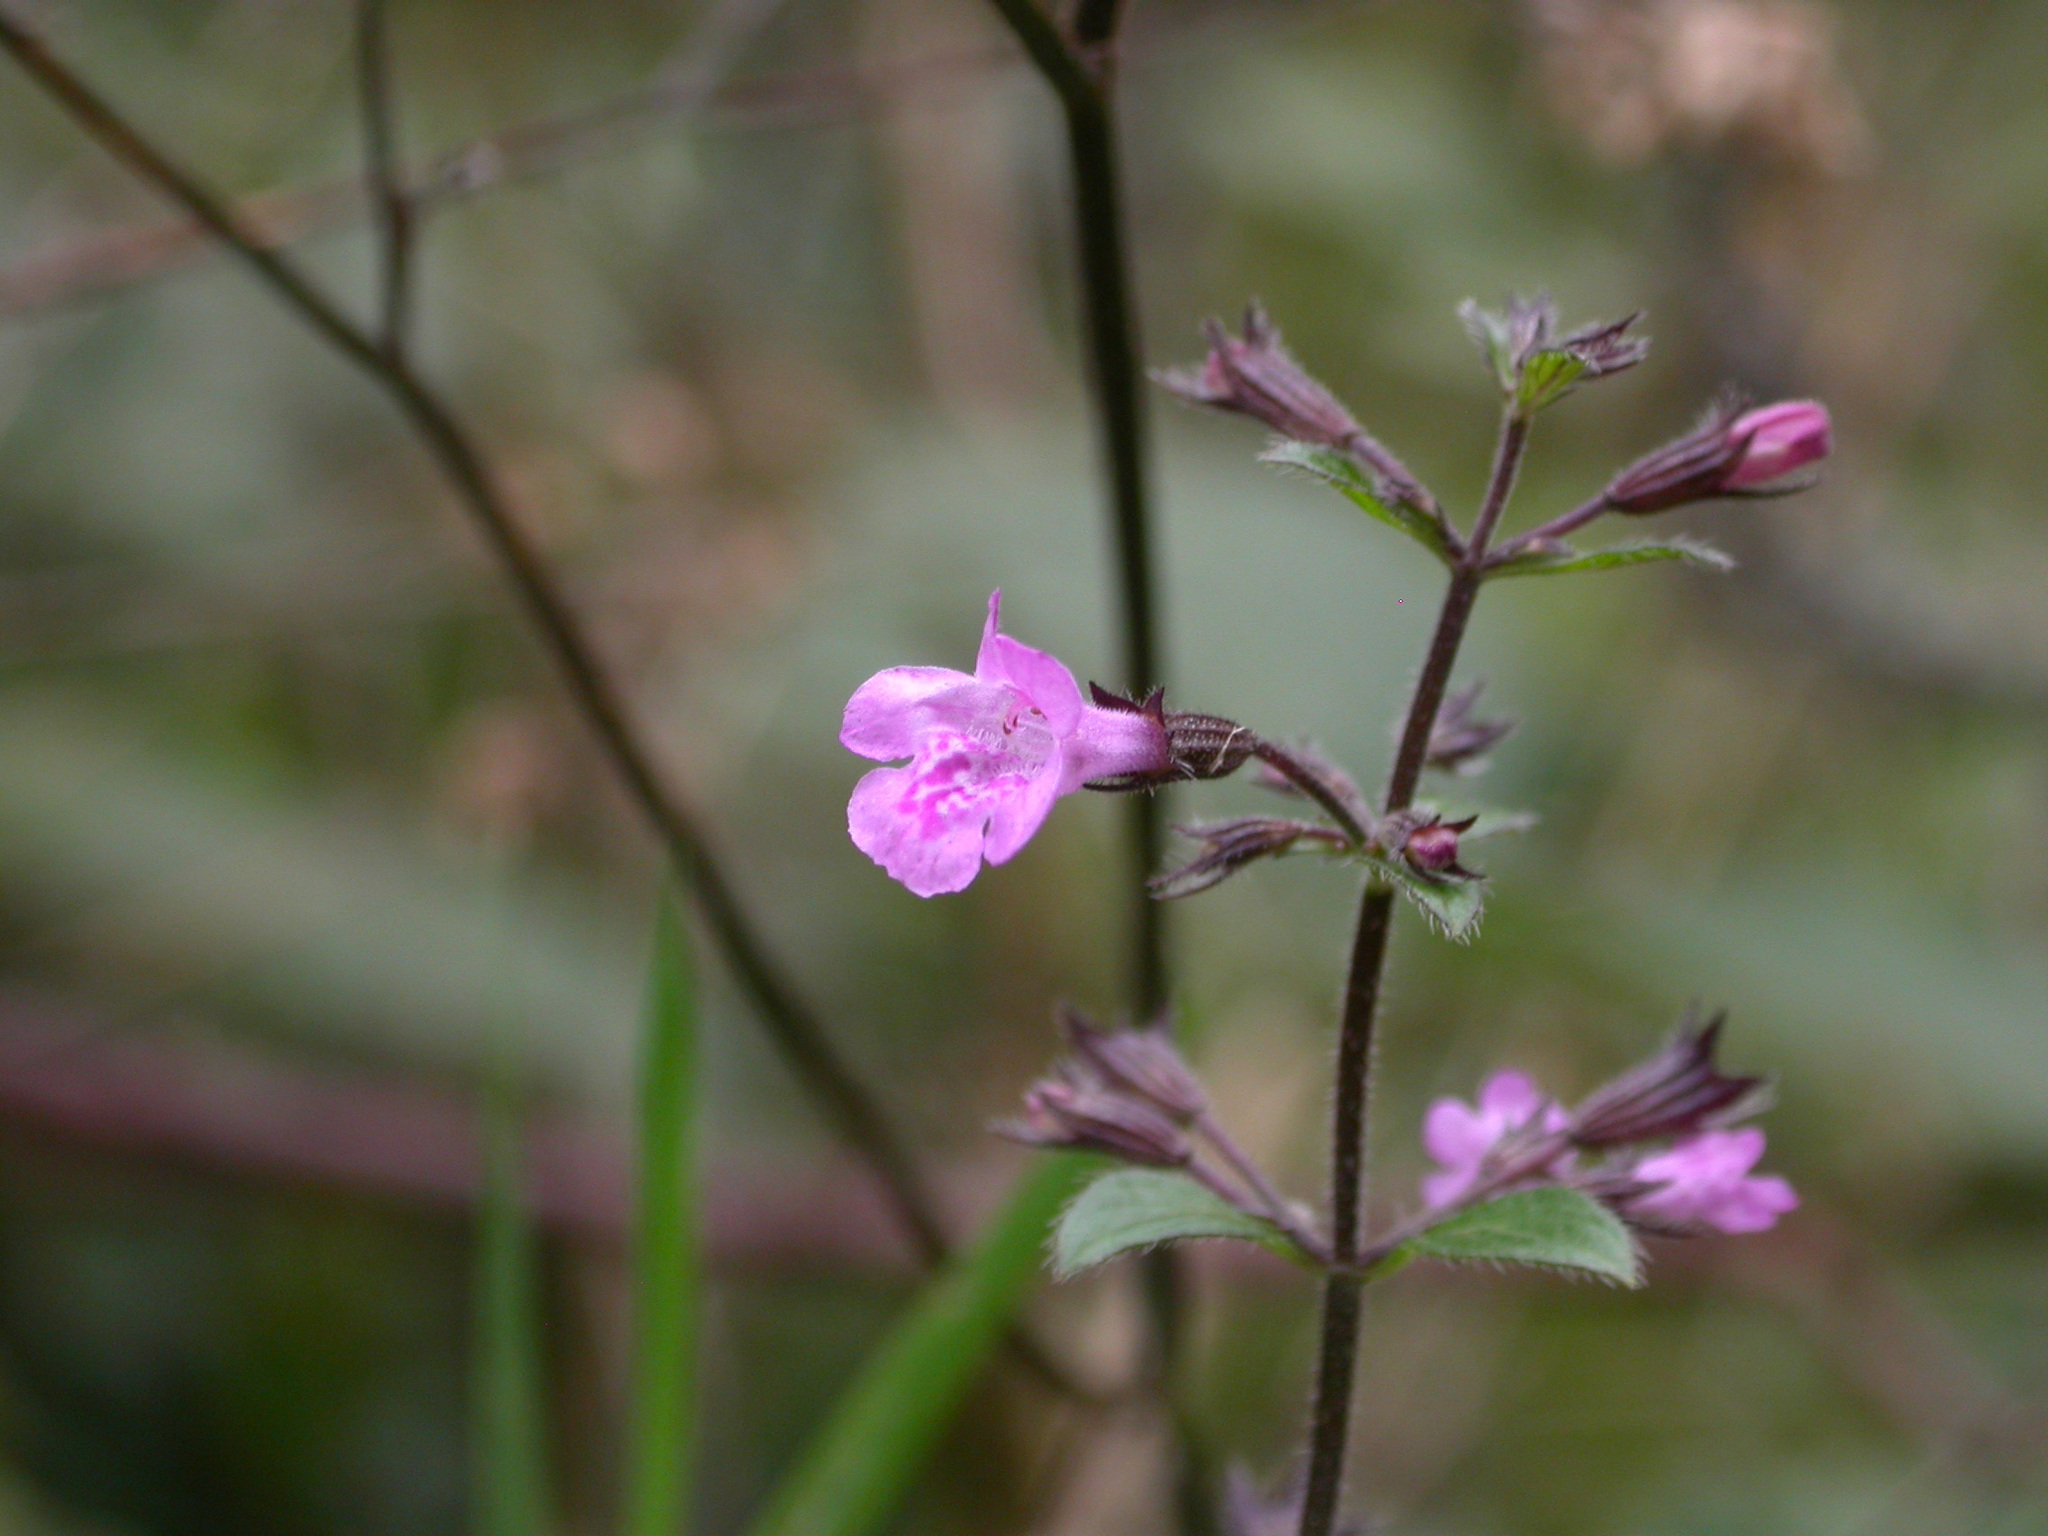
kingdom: Plantae
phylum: Tracheophyta
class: Magnoliopsida
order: Lamiales
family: Lamiaceae
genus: Clinopodium
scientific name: Clinopodium menthifolium
